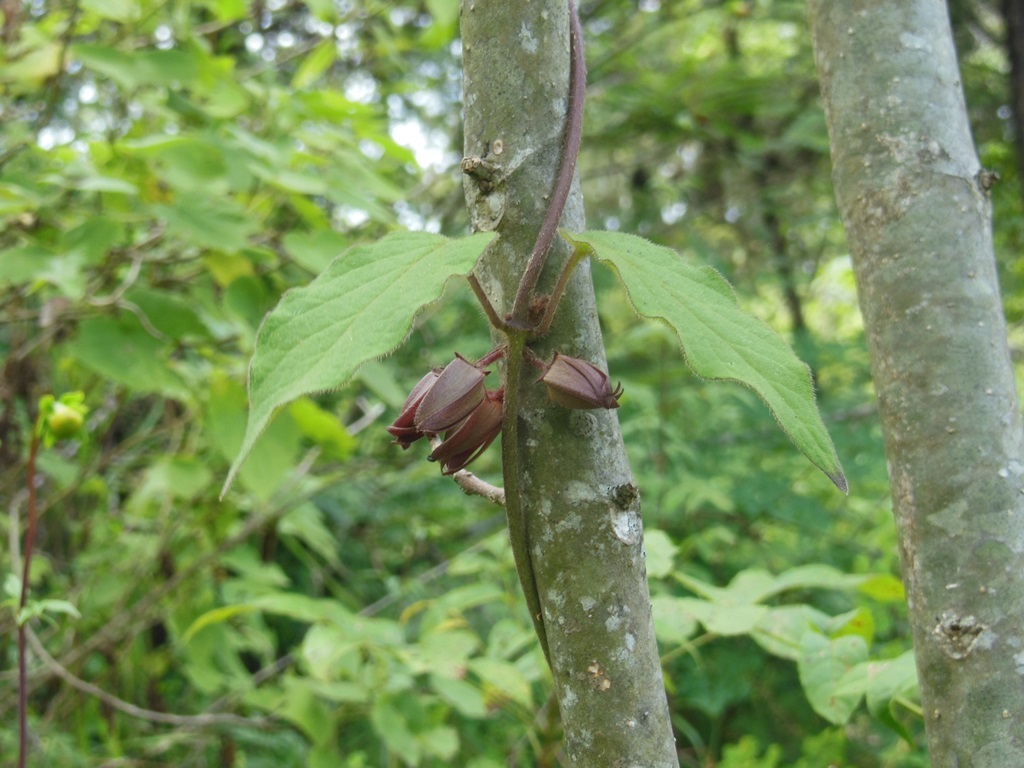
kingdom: Plantae
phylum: Tracheophyta
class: Magnoliopsida
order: Gentianales
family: Apocynaceae
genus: Matelea
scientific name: Matelea gonoloboides
